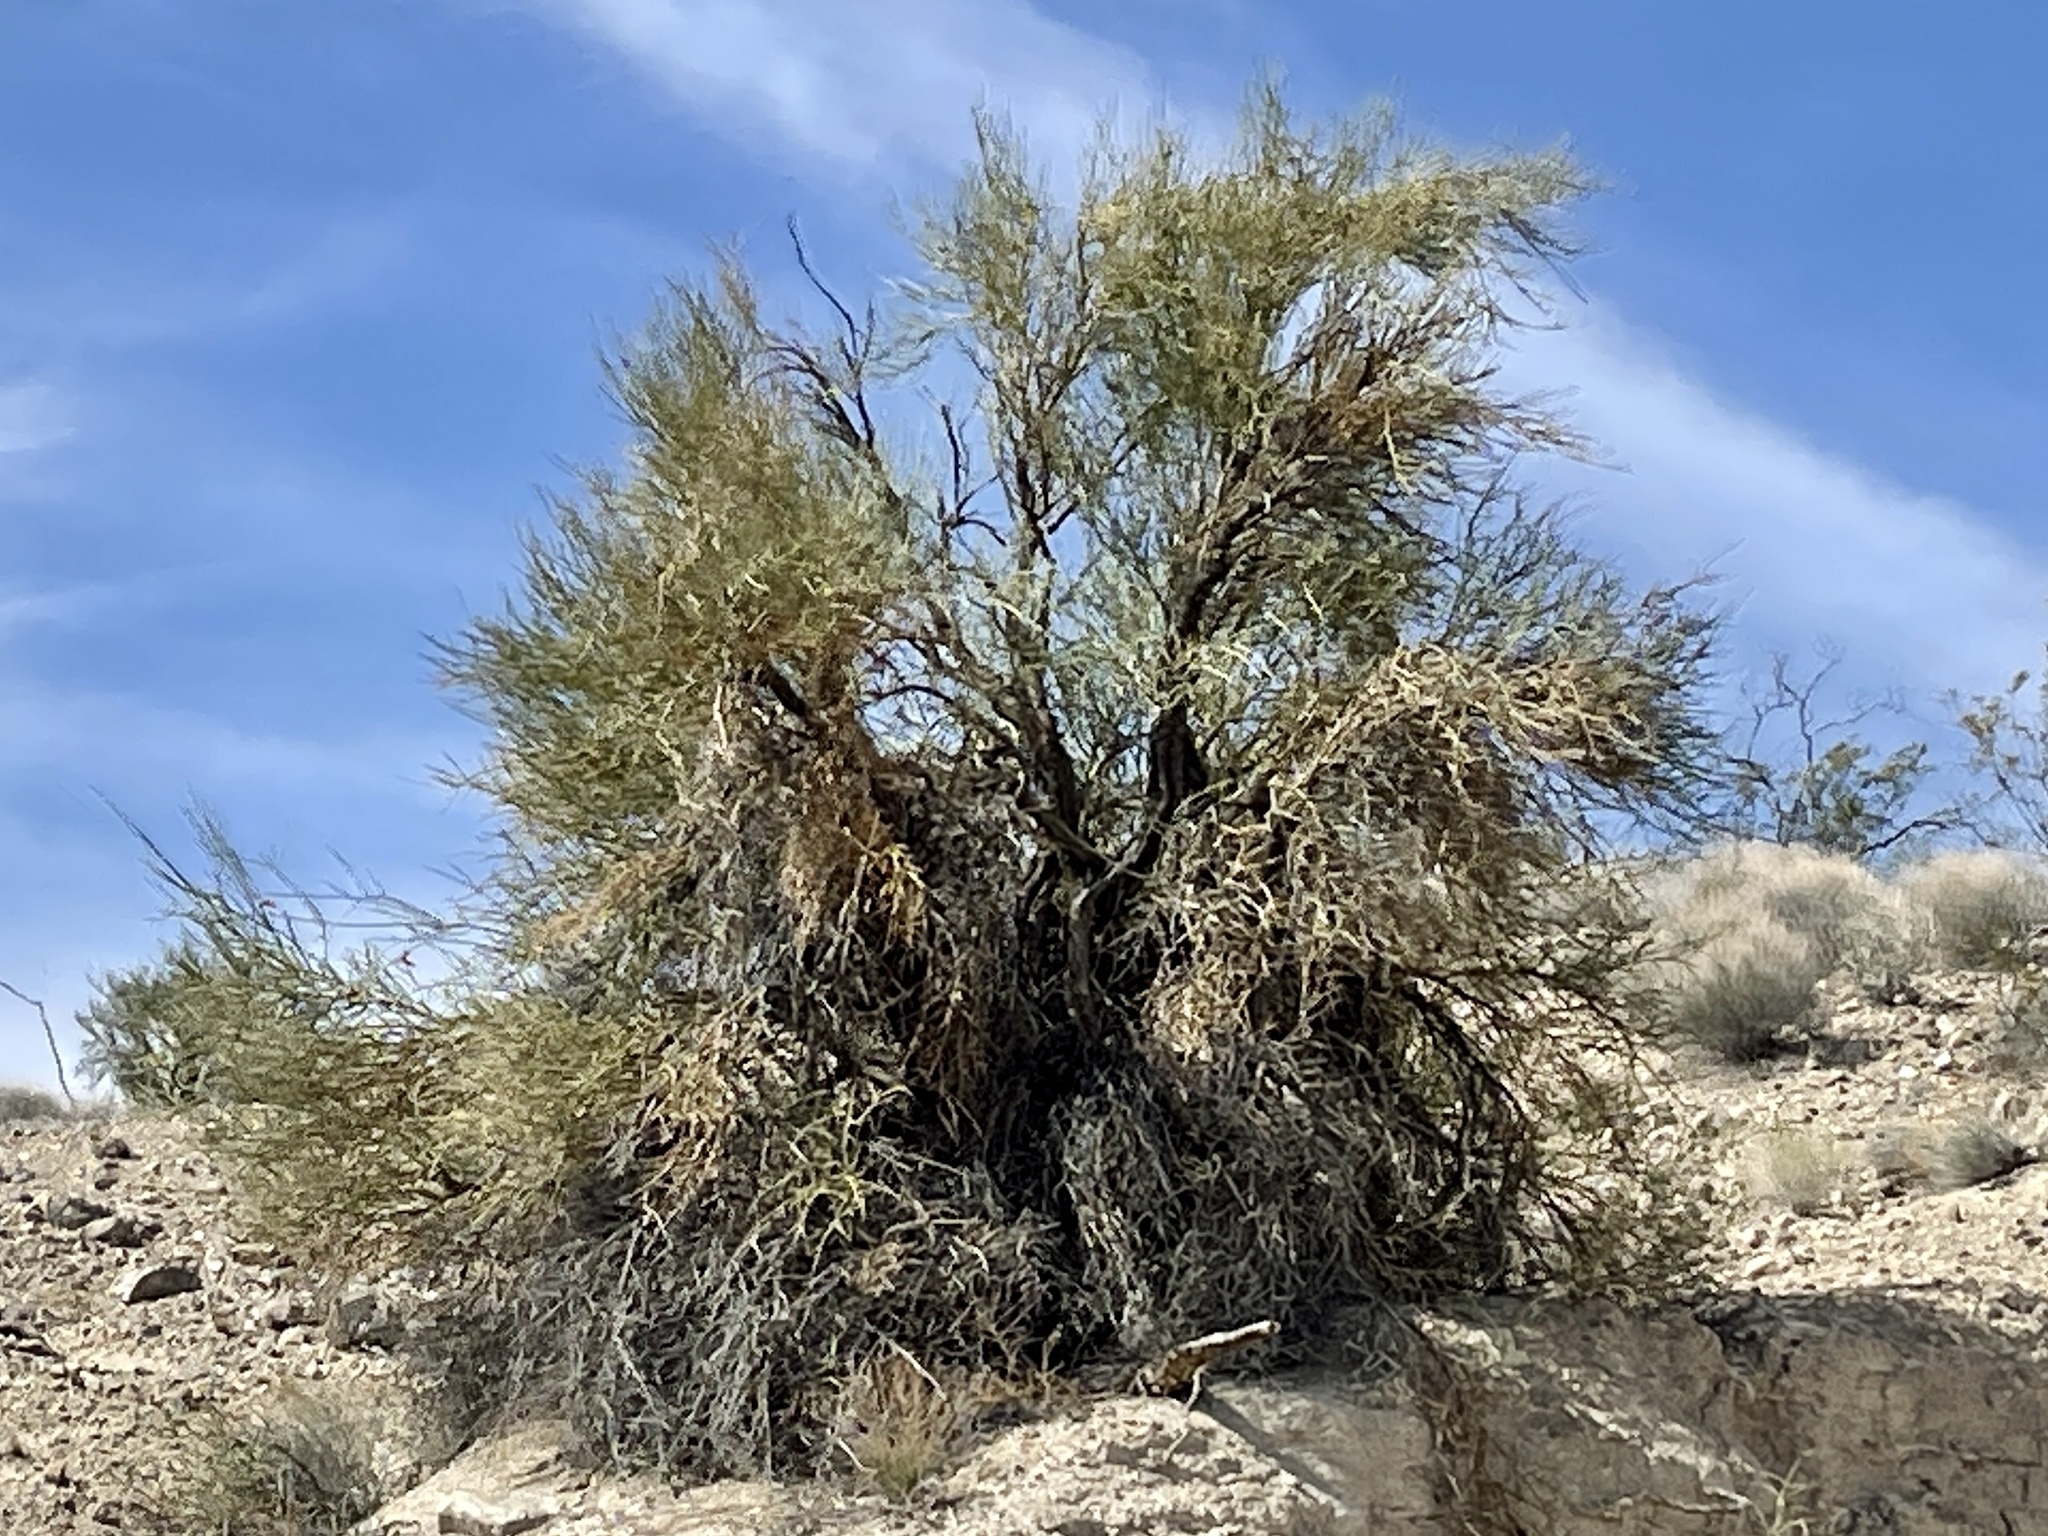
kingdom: Plantae
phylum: Tracheophyta
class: Magnoliopsida
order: Celastrales
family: Celastraceae
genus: Canotia
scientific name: Canotia holacantha
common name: Crucifixion thorns
